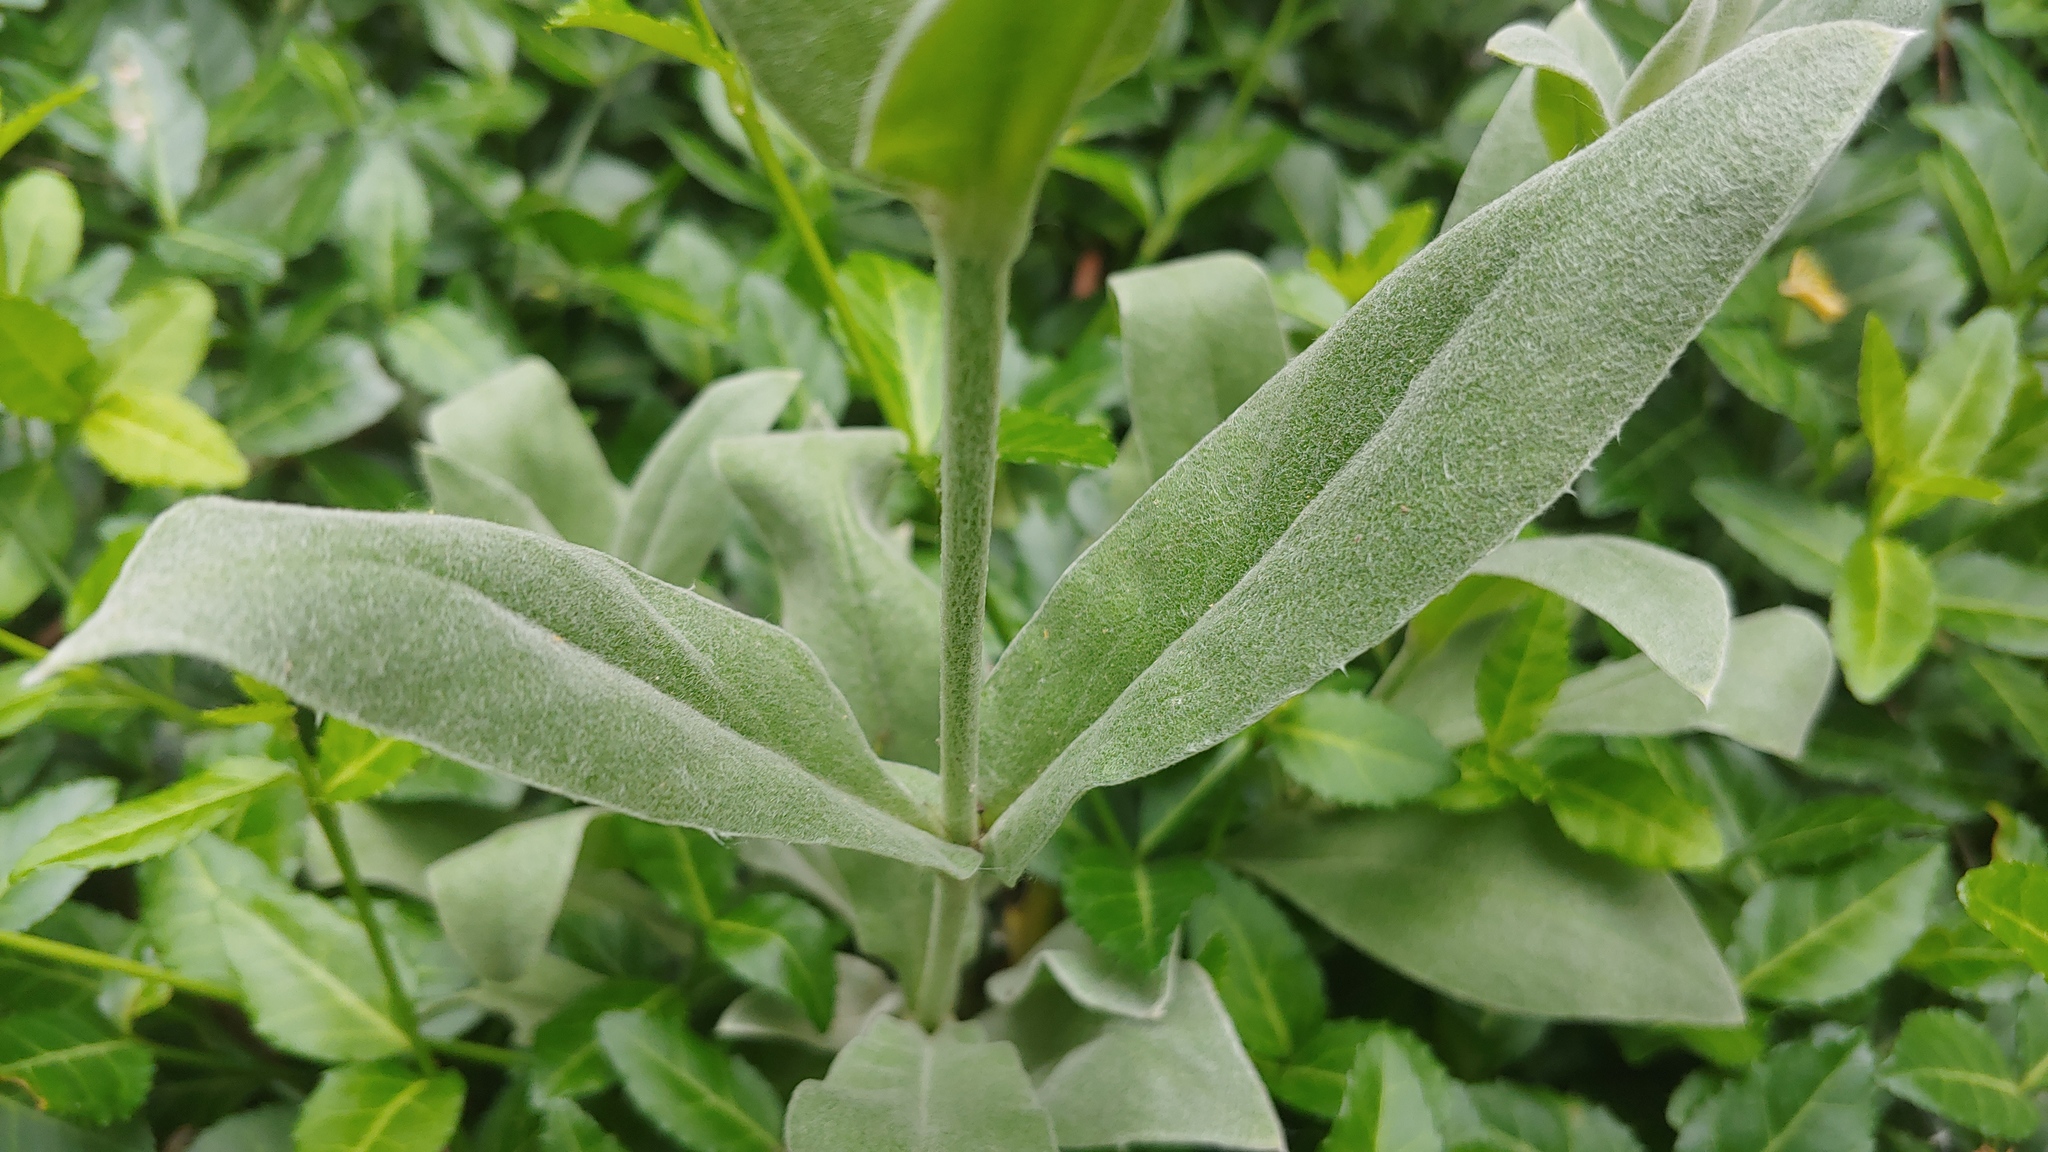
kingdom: Plantae
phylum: Tracheophyta
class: Magnoliopsida
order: Caryophyllales
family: Caryophyllaceae
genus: Silene
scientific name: Silene coronaria
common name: Rose campion
